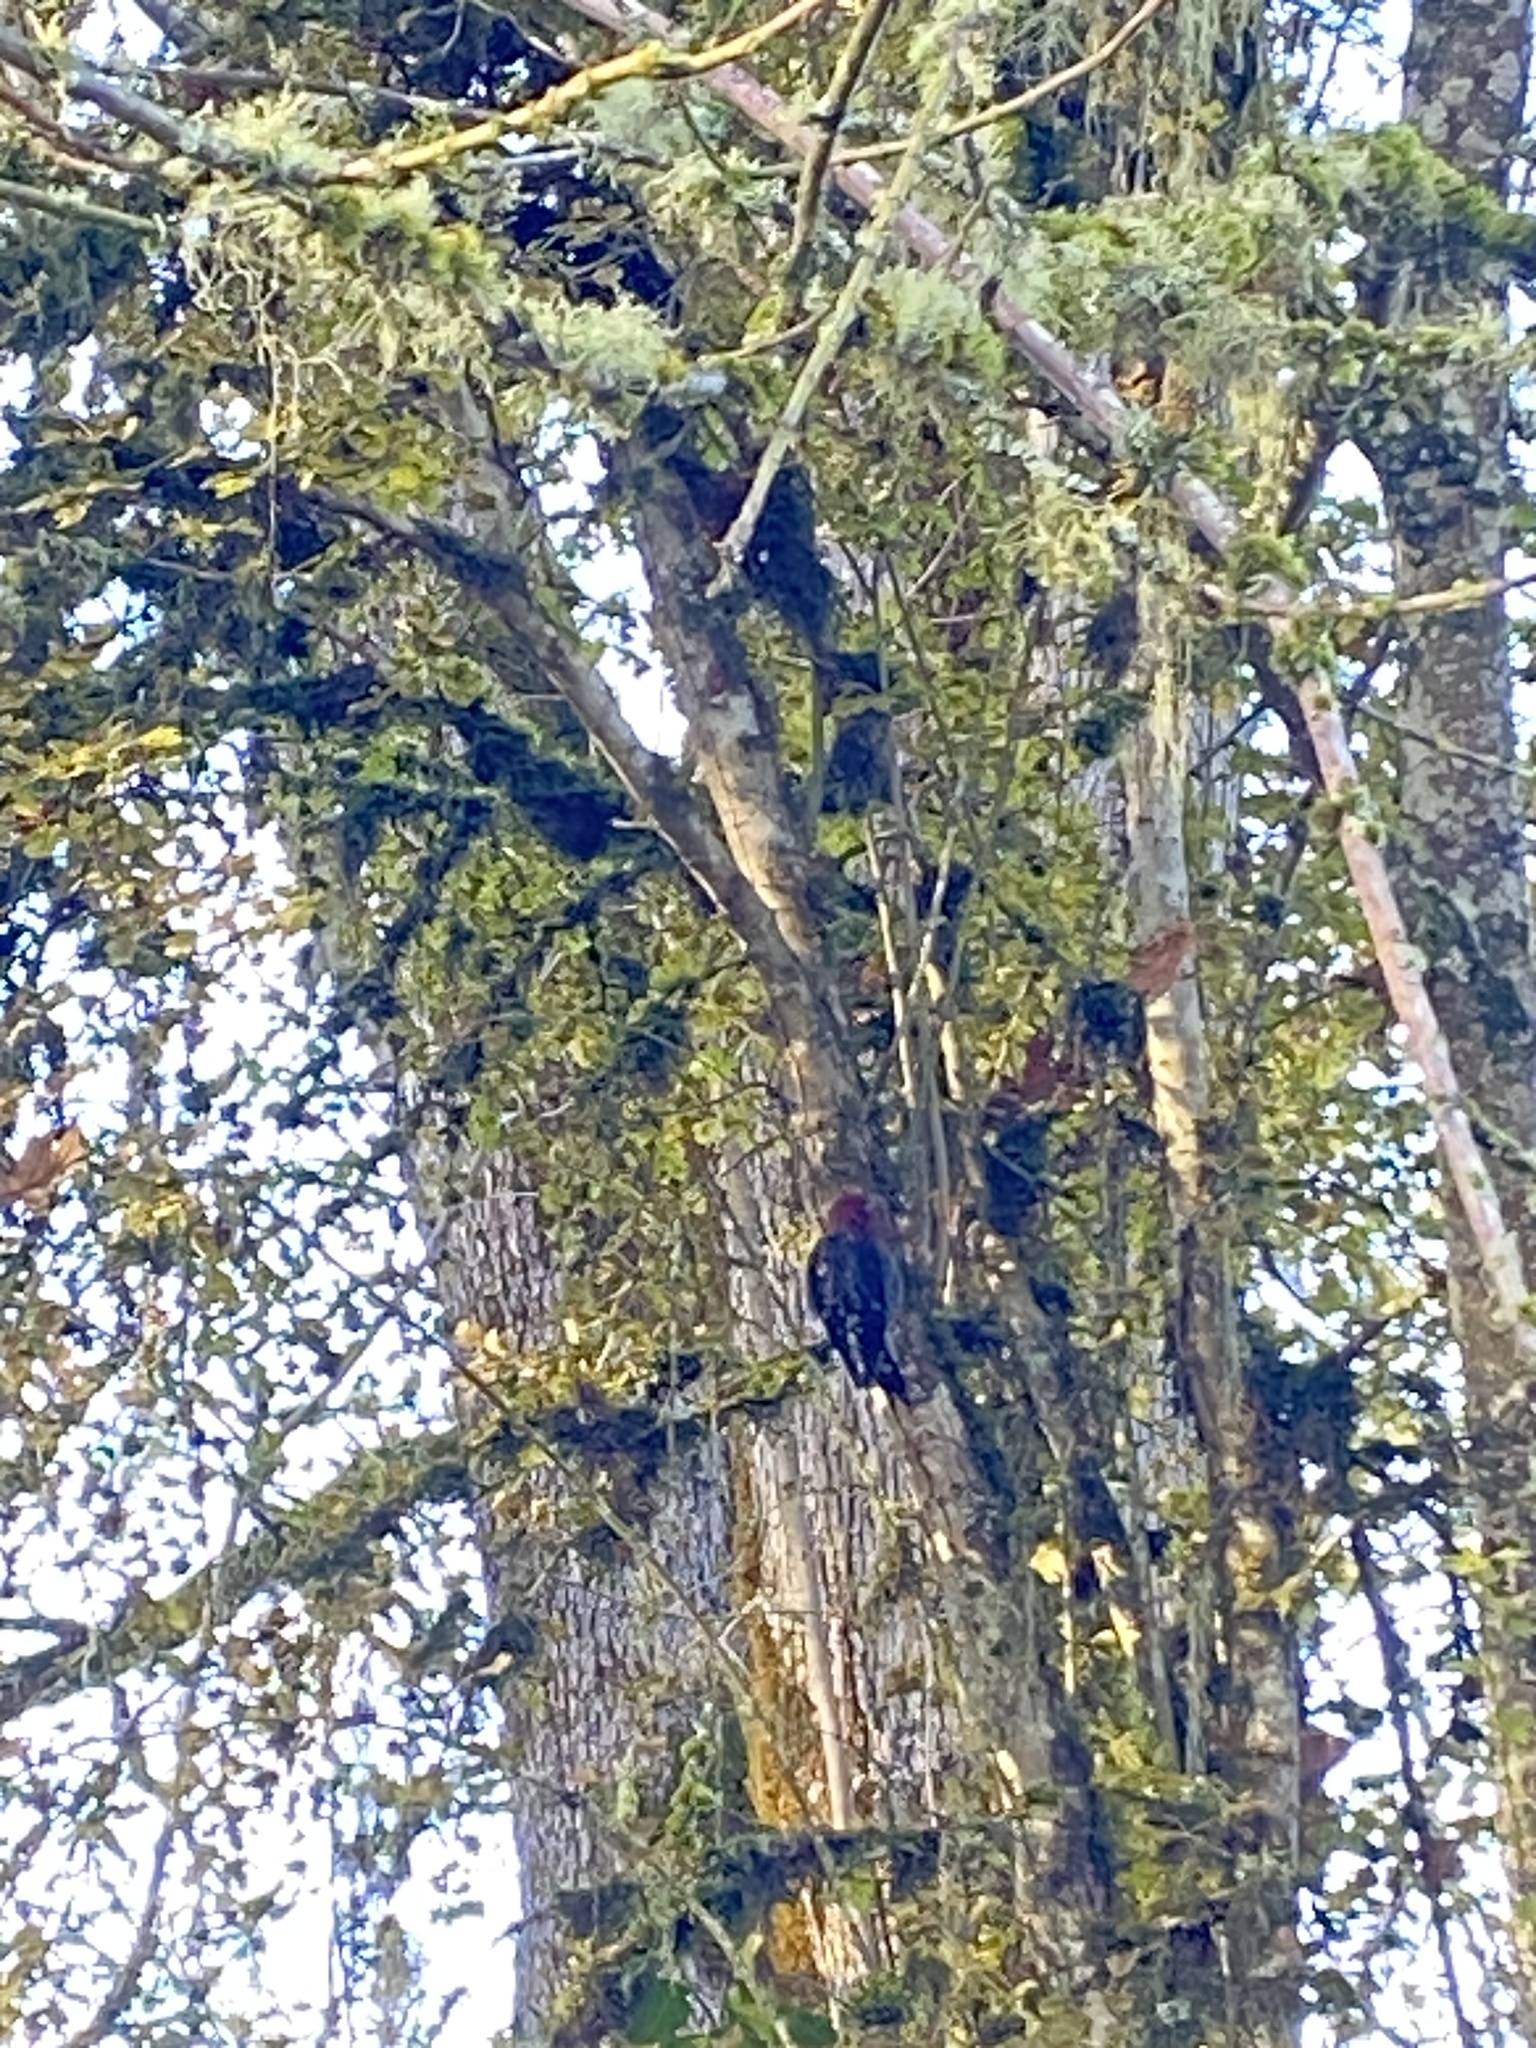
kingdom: Animalia
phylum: Chordata
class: Aves
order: Piciformes
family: Picidae
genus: Sphyrapicus
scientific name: Sphyrapicus ruber
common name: Red-breasted sapsucker
